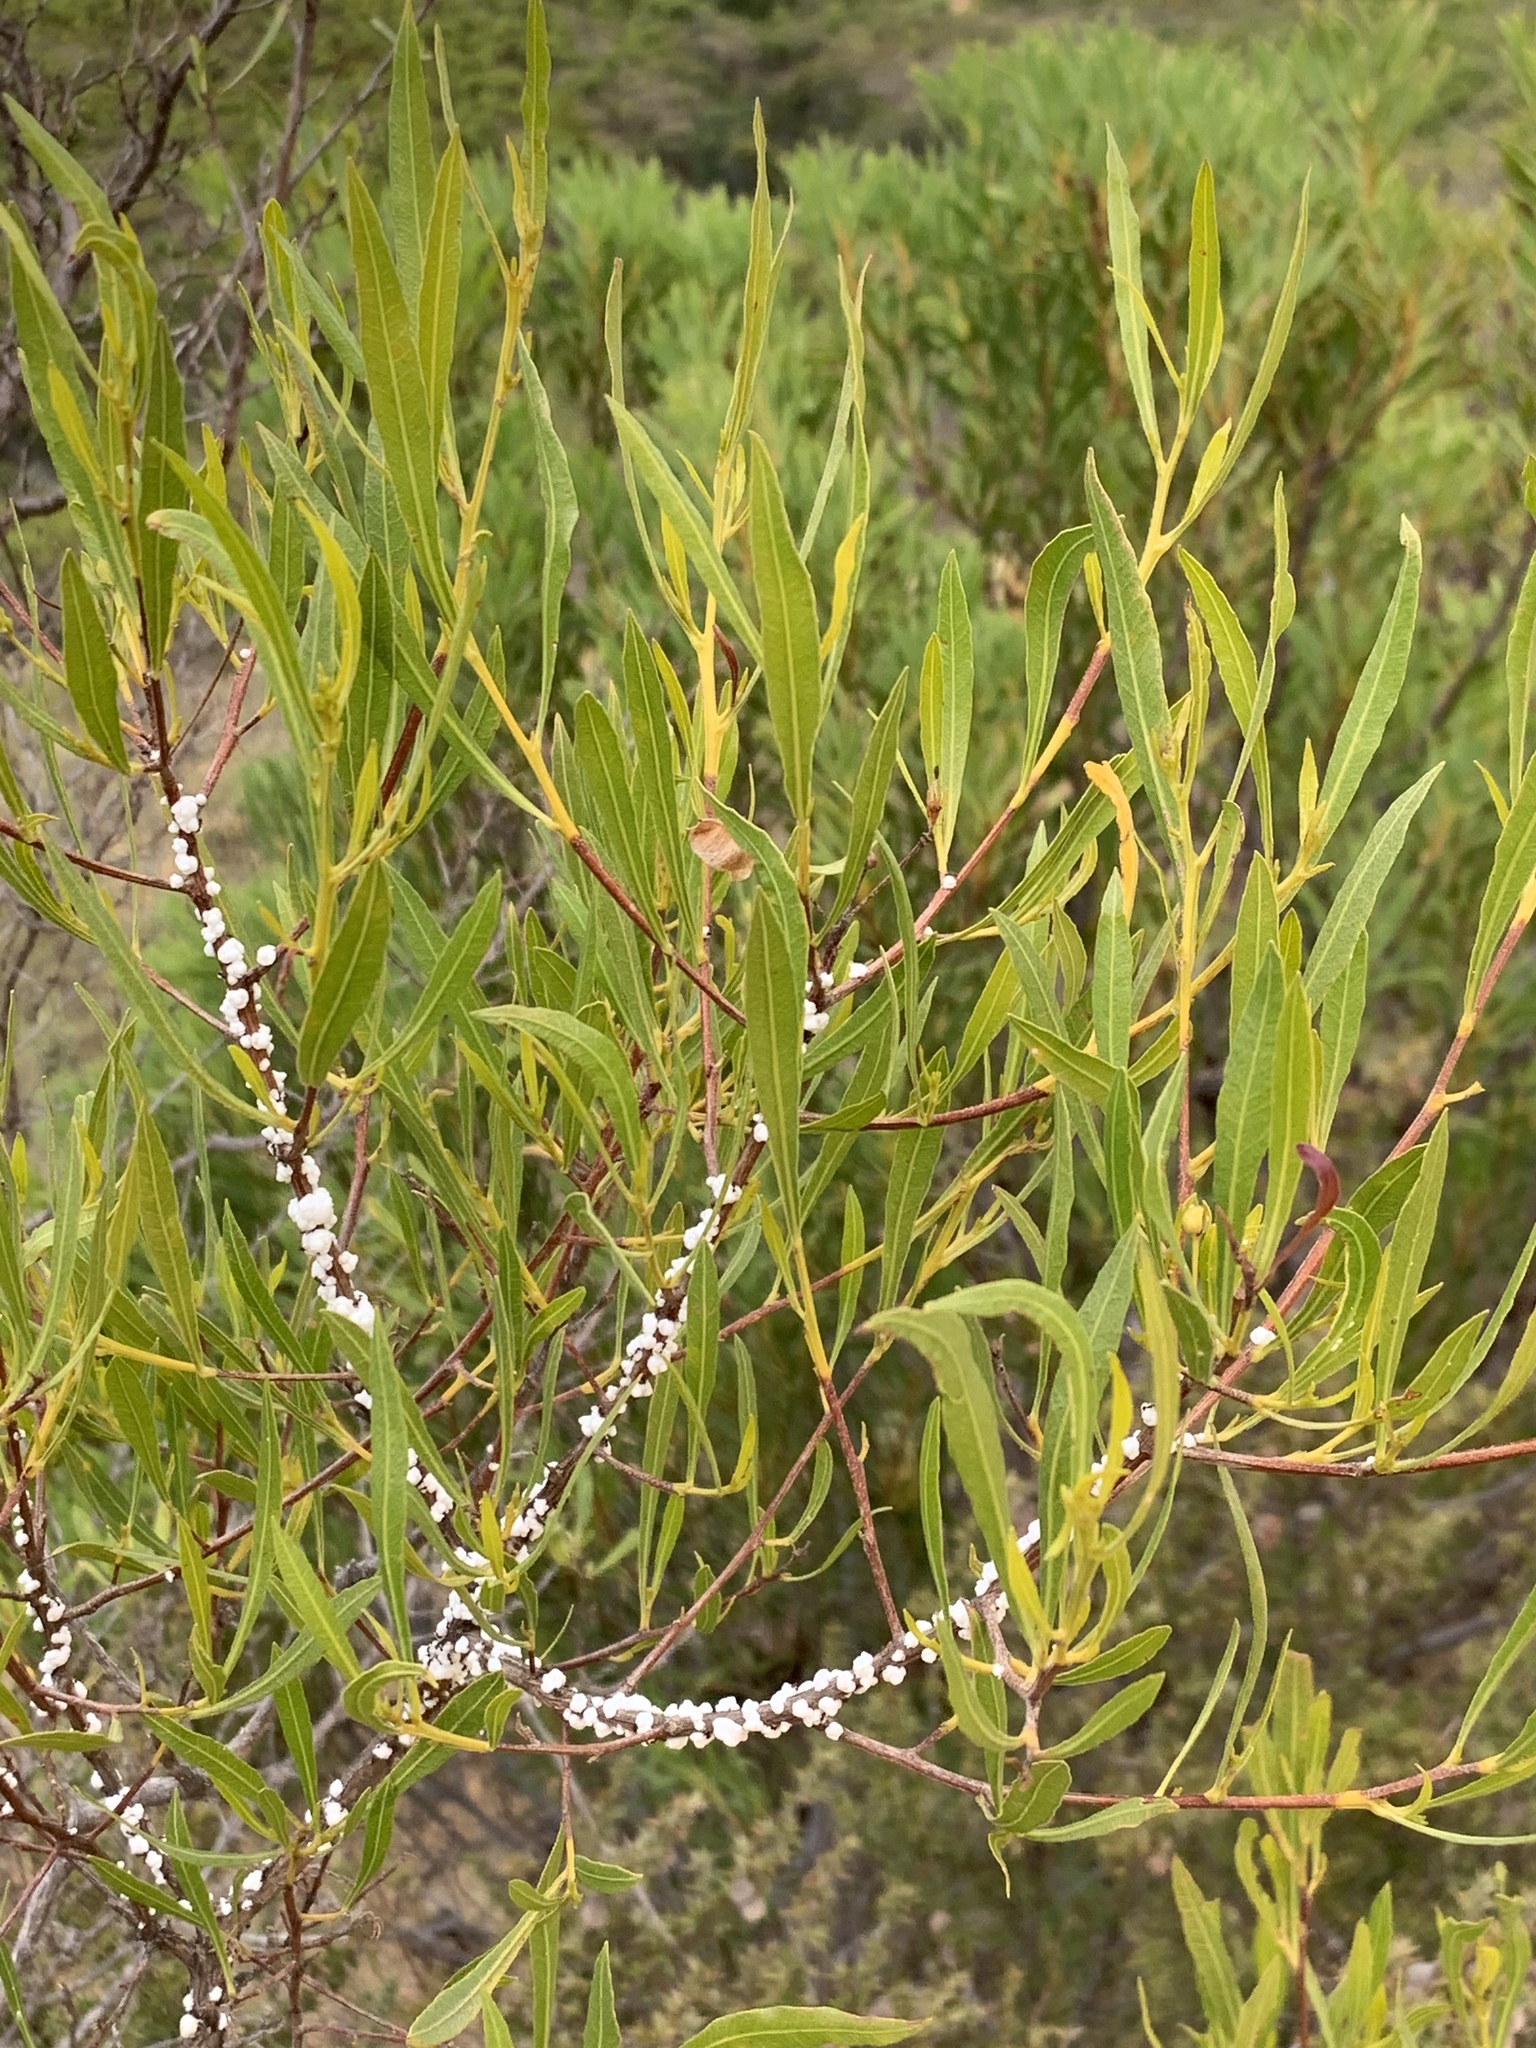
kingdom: Plantae
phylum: Tracheophyta
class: Magnoliopsida
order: Sapindales
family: Sapindaceae
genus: Dodonaea
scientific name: Dodonaea viscosa
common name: Hopbush
